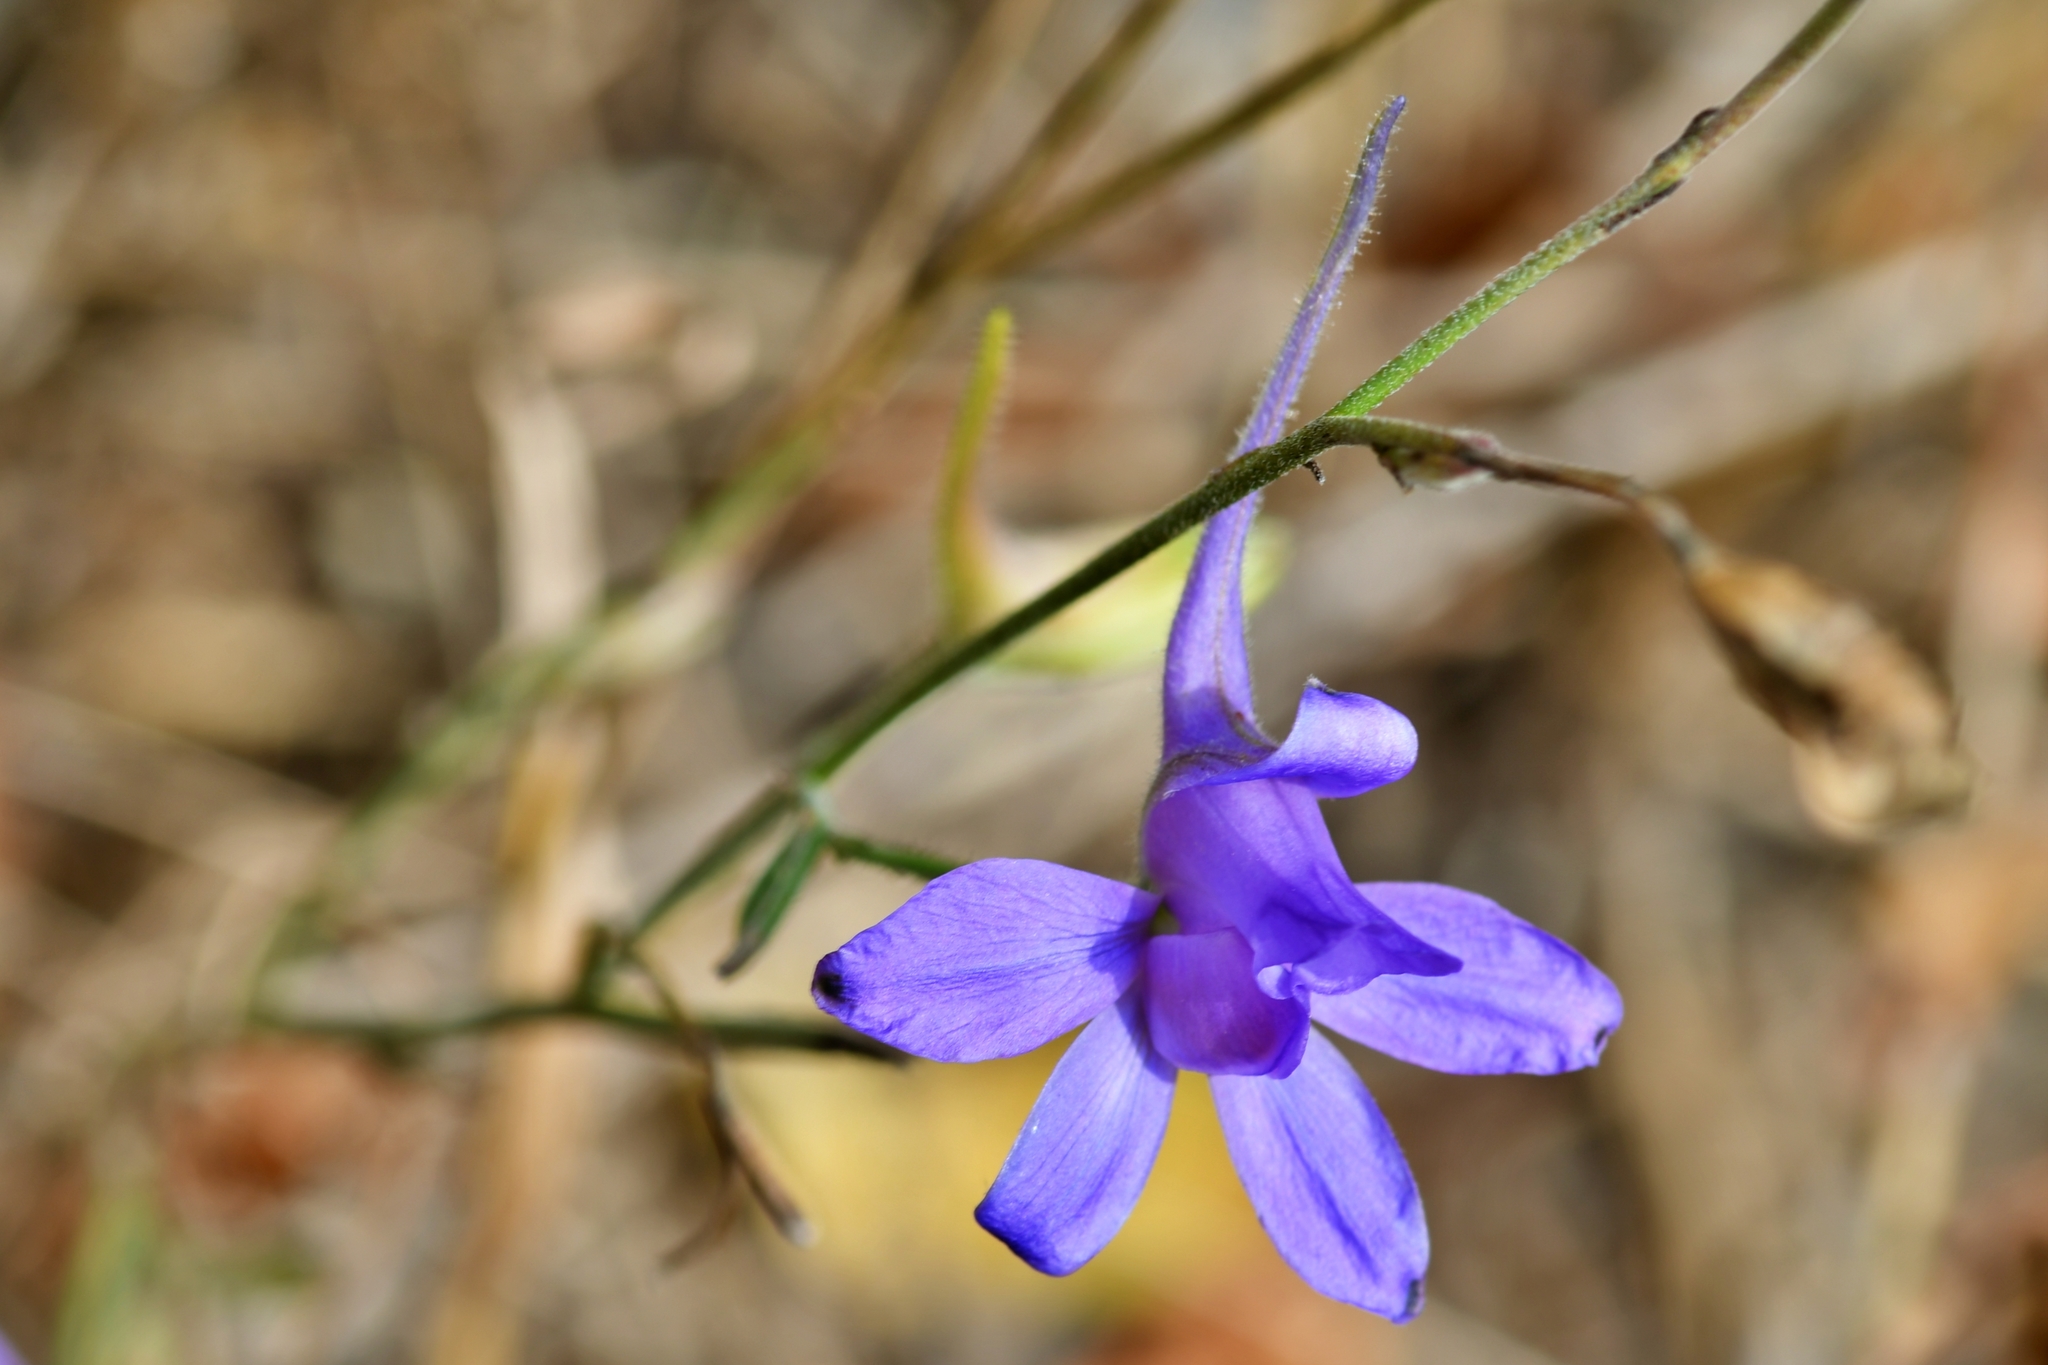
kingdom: Plantae
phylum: Tracheophyta
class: Magnoliopsida
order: Ranunculales
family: Ranunculaceae
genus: Delphinium
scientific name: Delphinium consolida
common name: Branching larkspur
